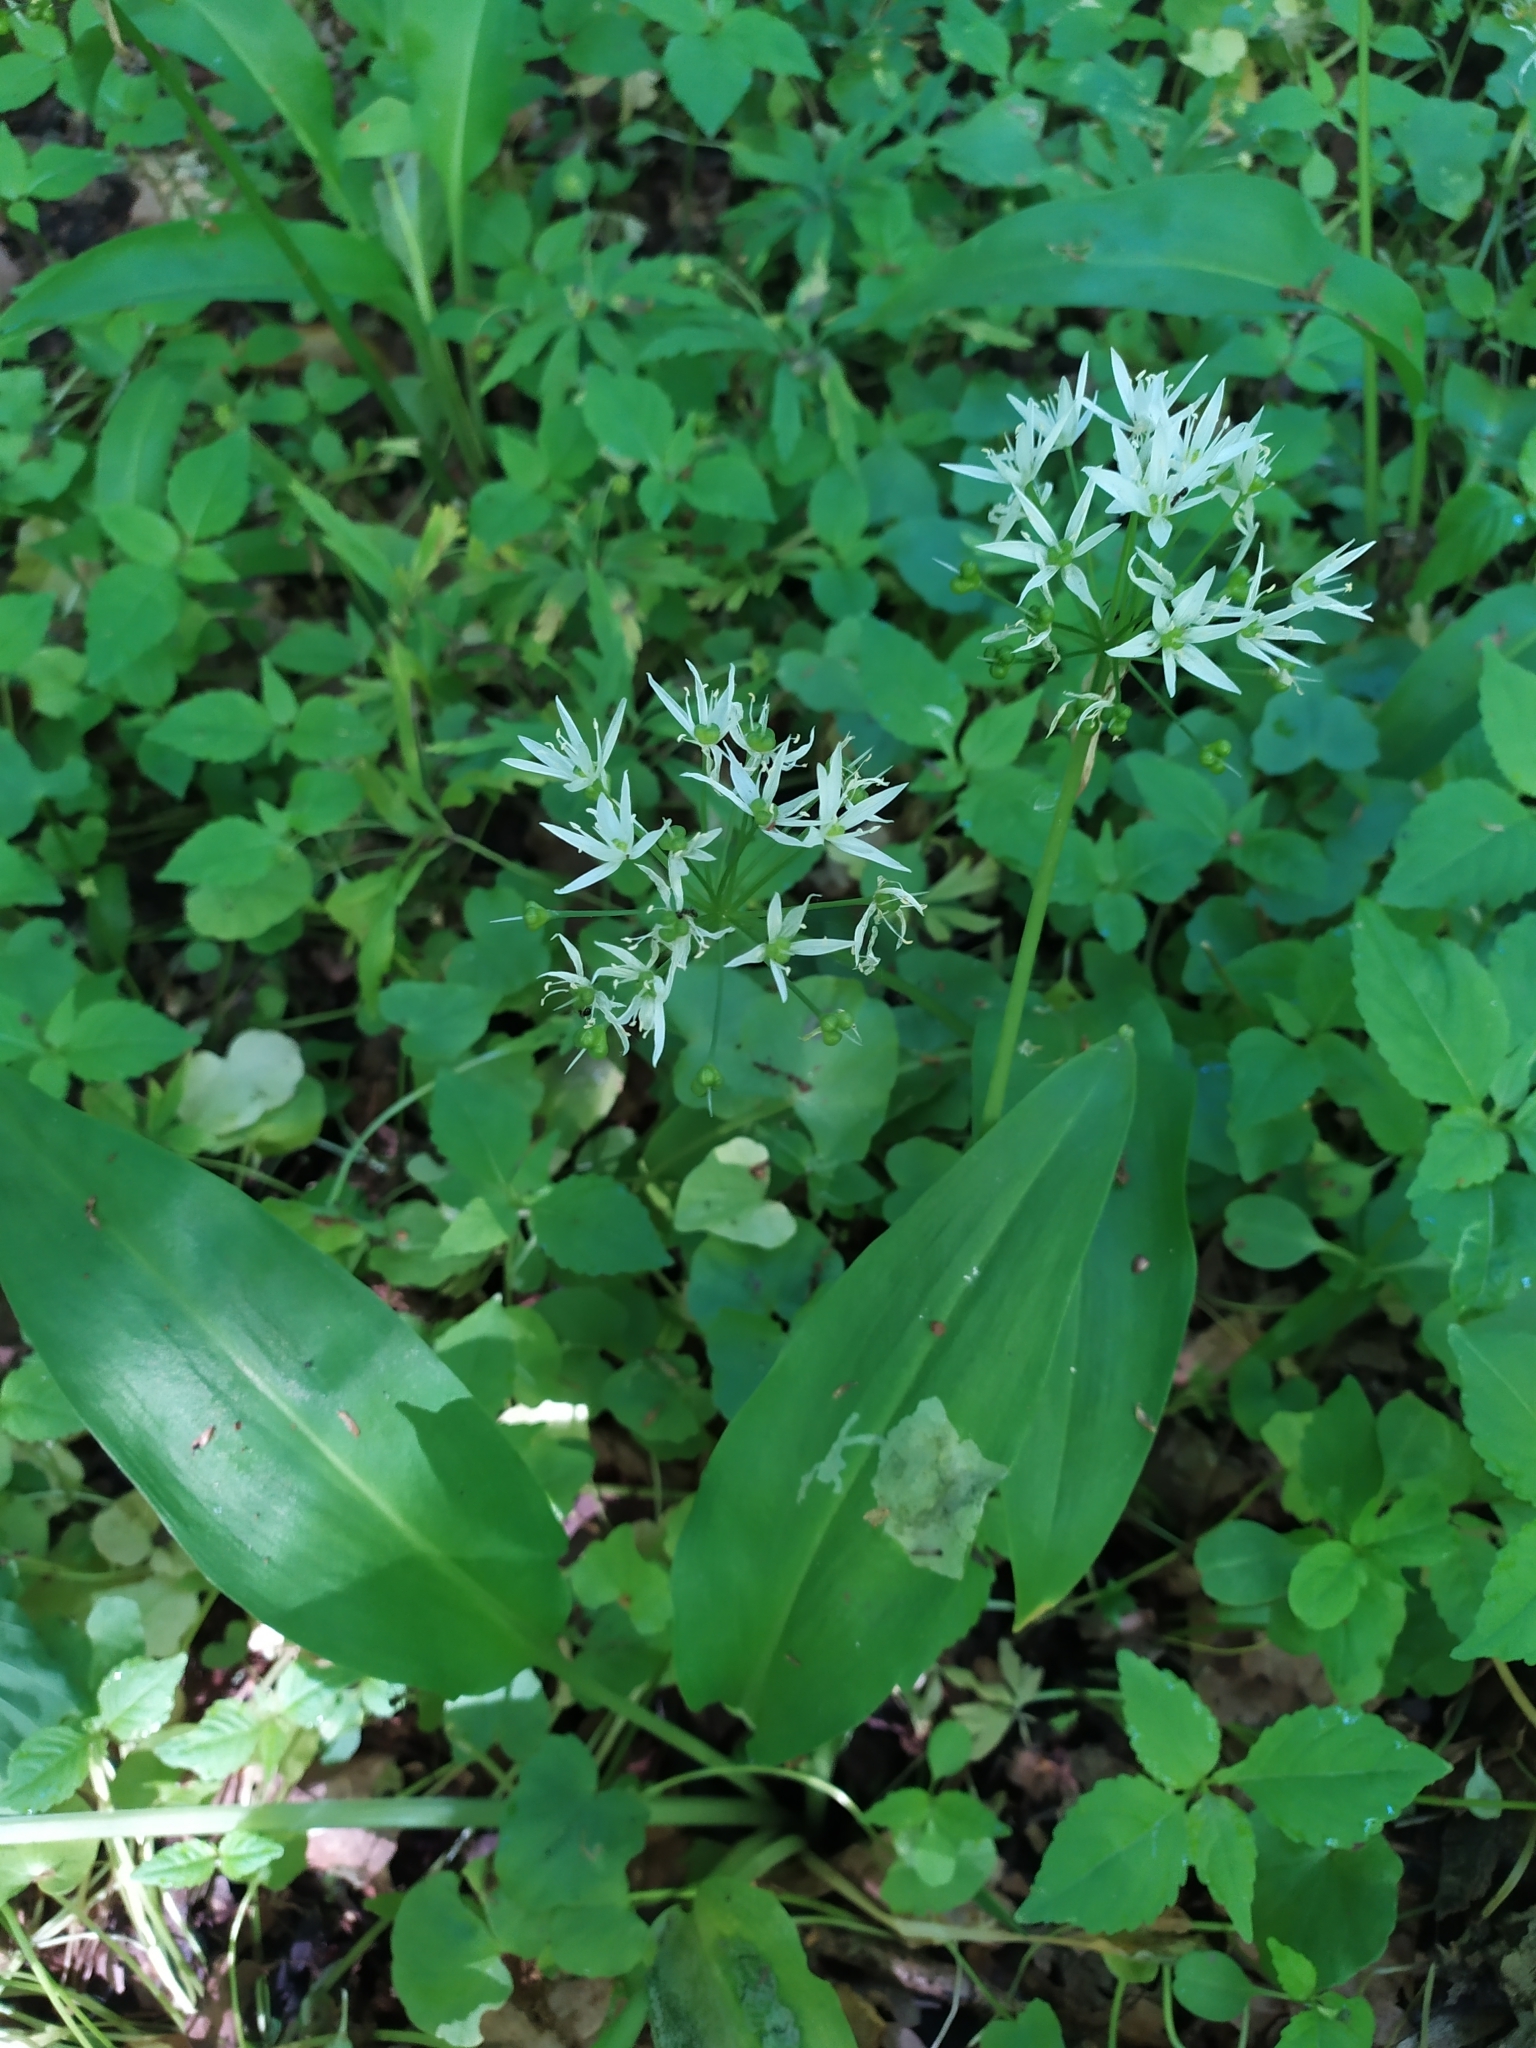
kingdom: Plantae
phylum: Tracheophyta
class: Liliopsida
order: Asparagales
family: Amaryllidaceae
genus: Allium
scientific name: Allium ursinum
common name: Ramsons
